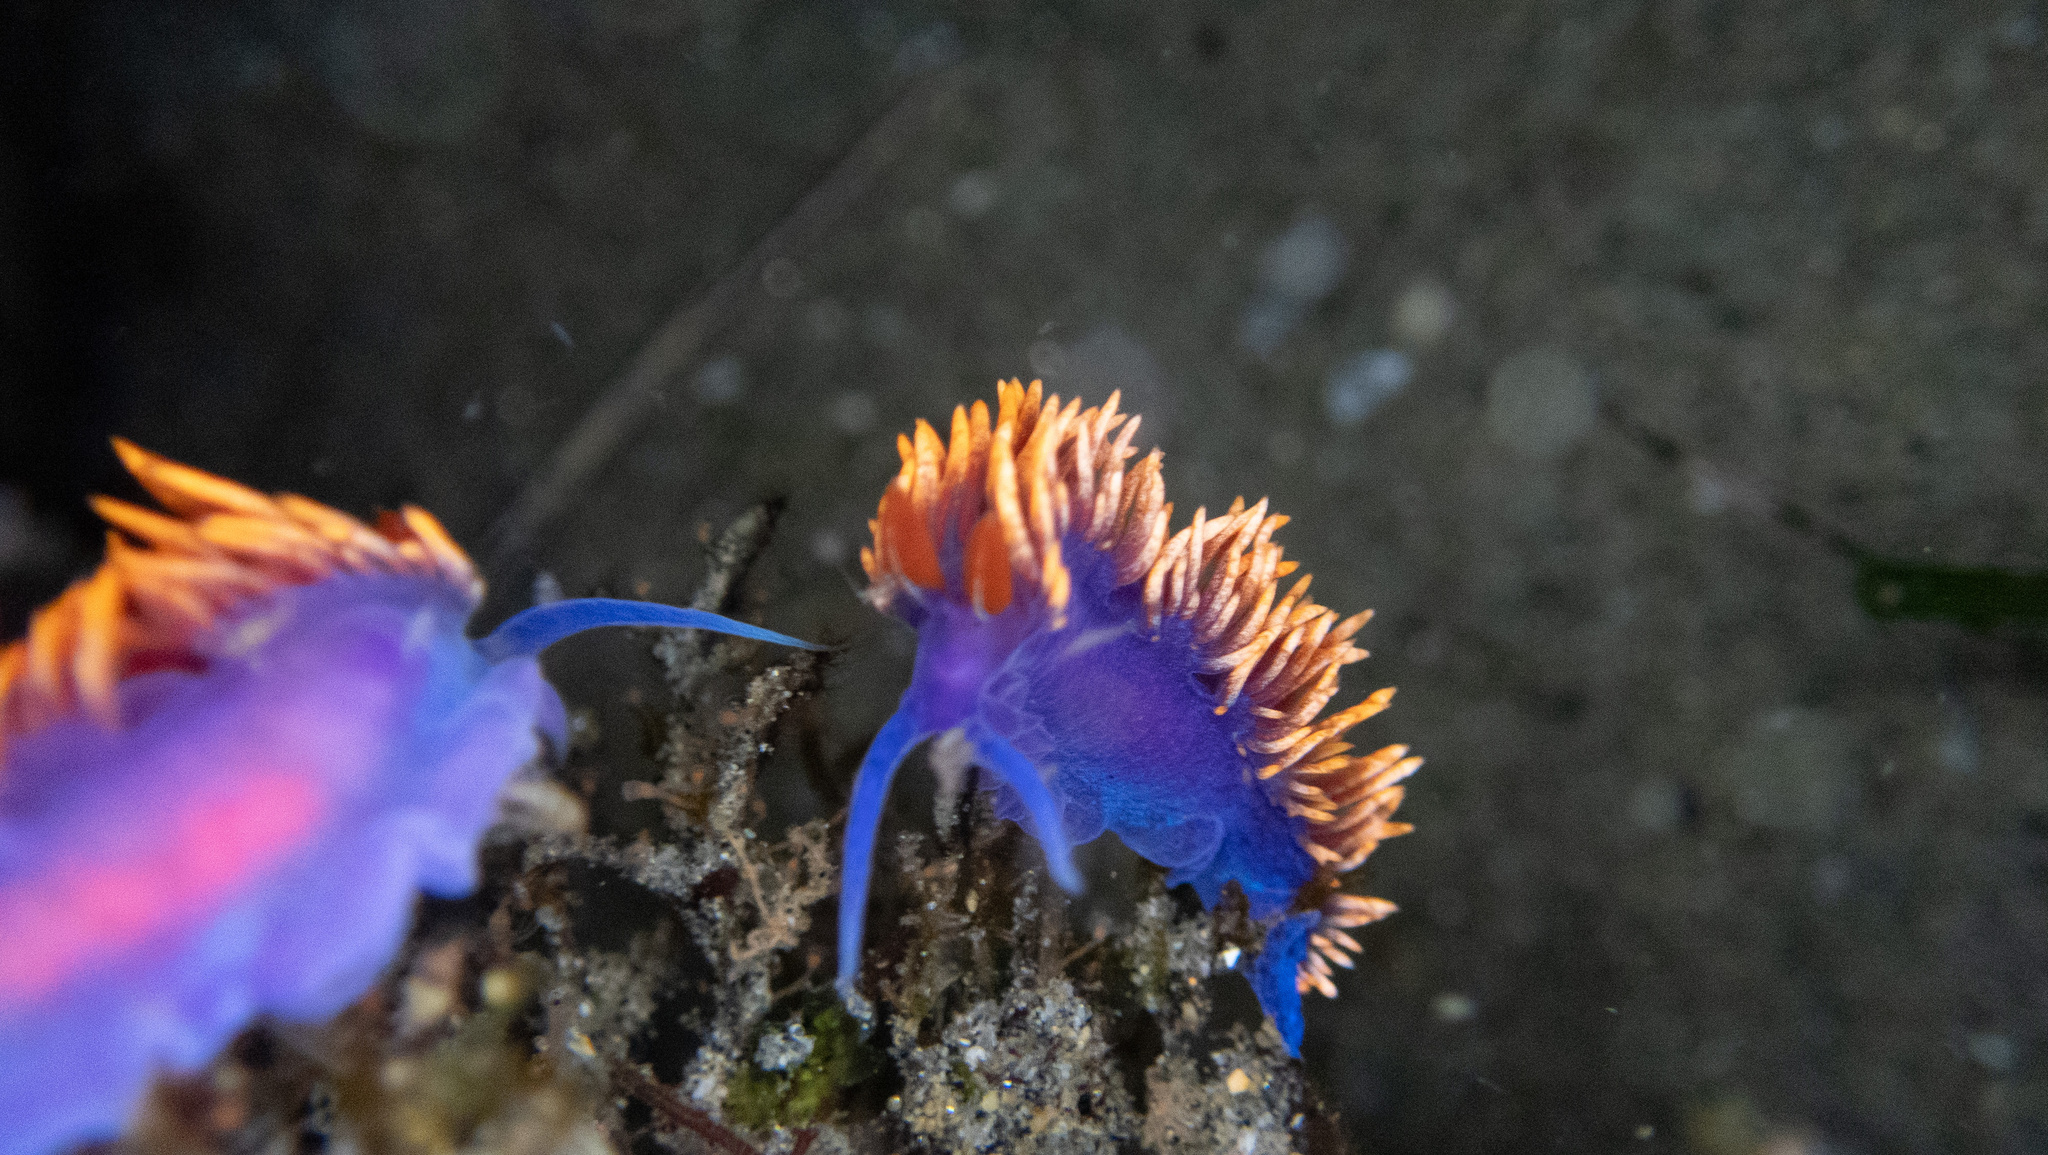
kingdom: Animalia
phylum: Mollusca
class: Gastropoda
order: Nudibranchia
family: Flabellinopsidae
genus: Flabellinopsis
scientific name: Flabellinopsis iodinea
